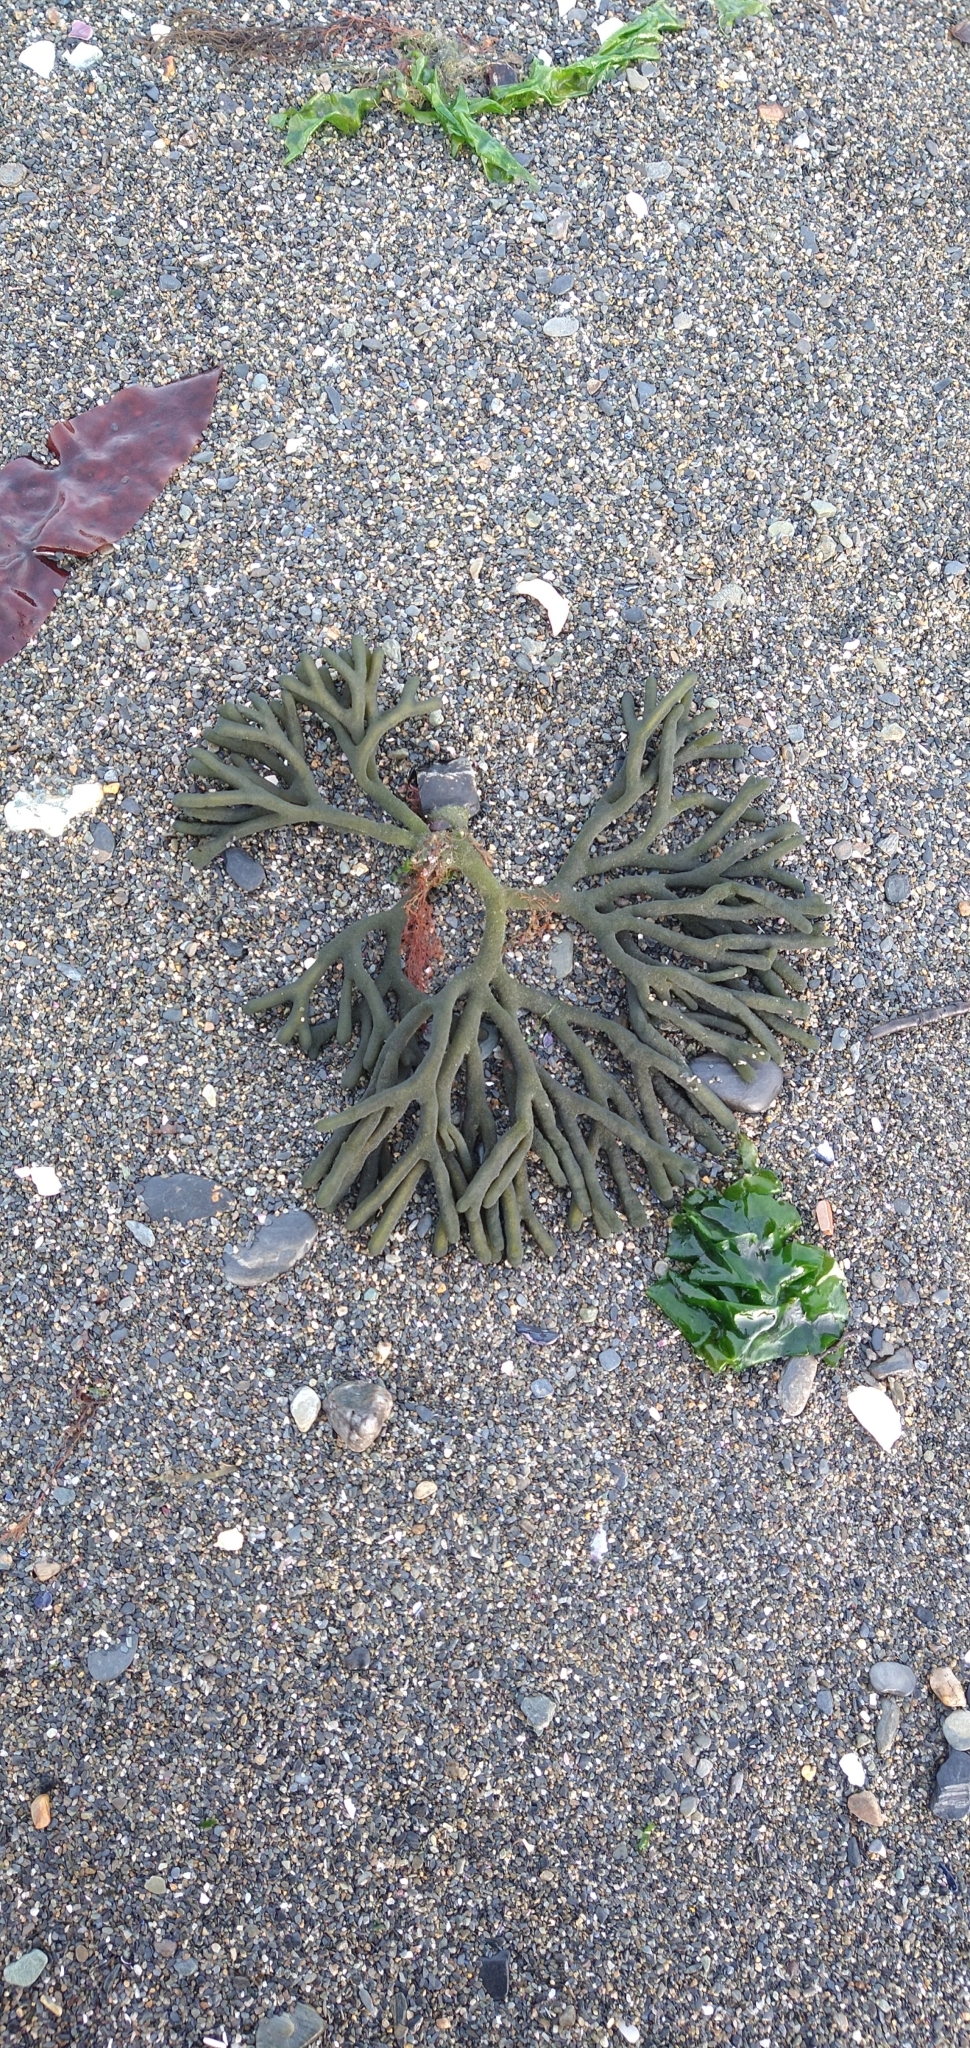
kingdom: Plantae
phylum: Chlorophyta
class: Ulvophyceae
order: Bryopsidales
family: Codiaceae
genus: Codium
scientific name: Codium
